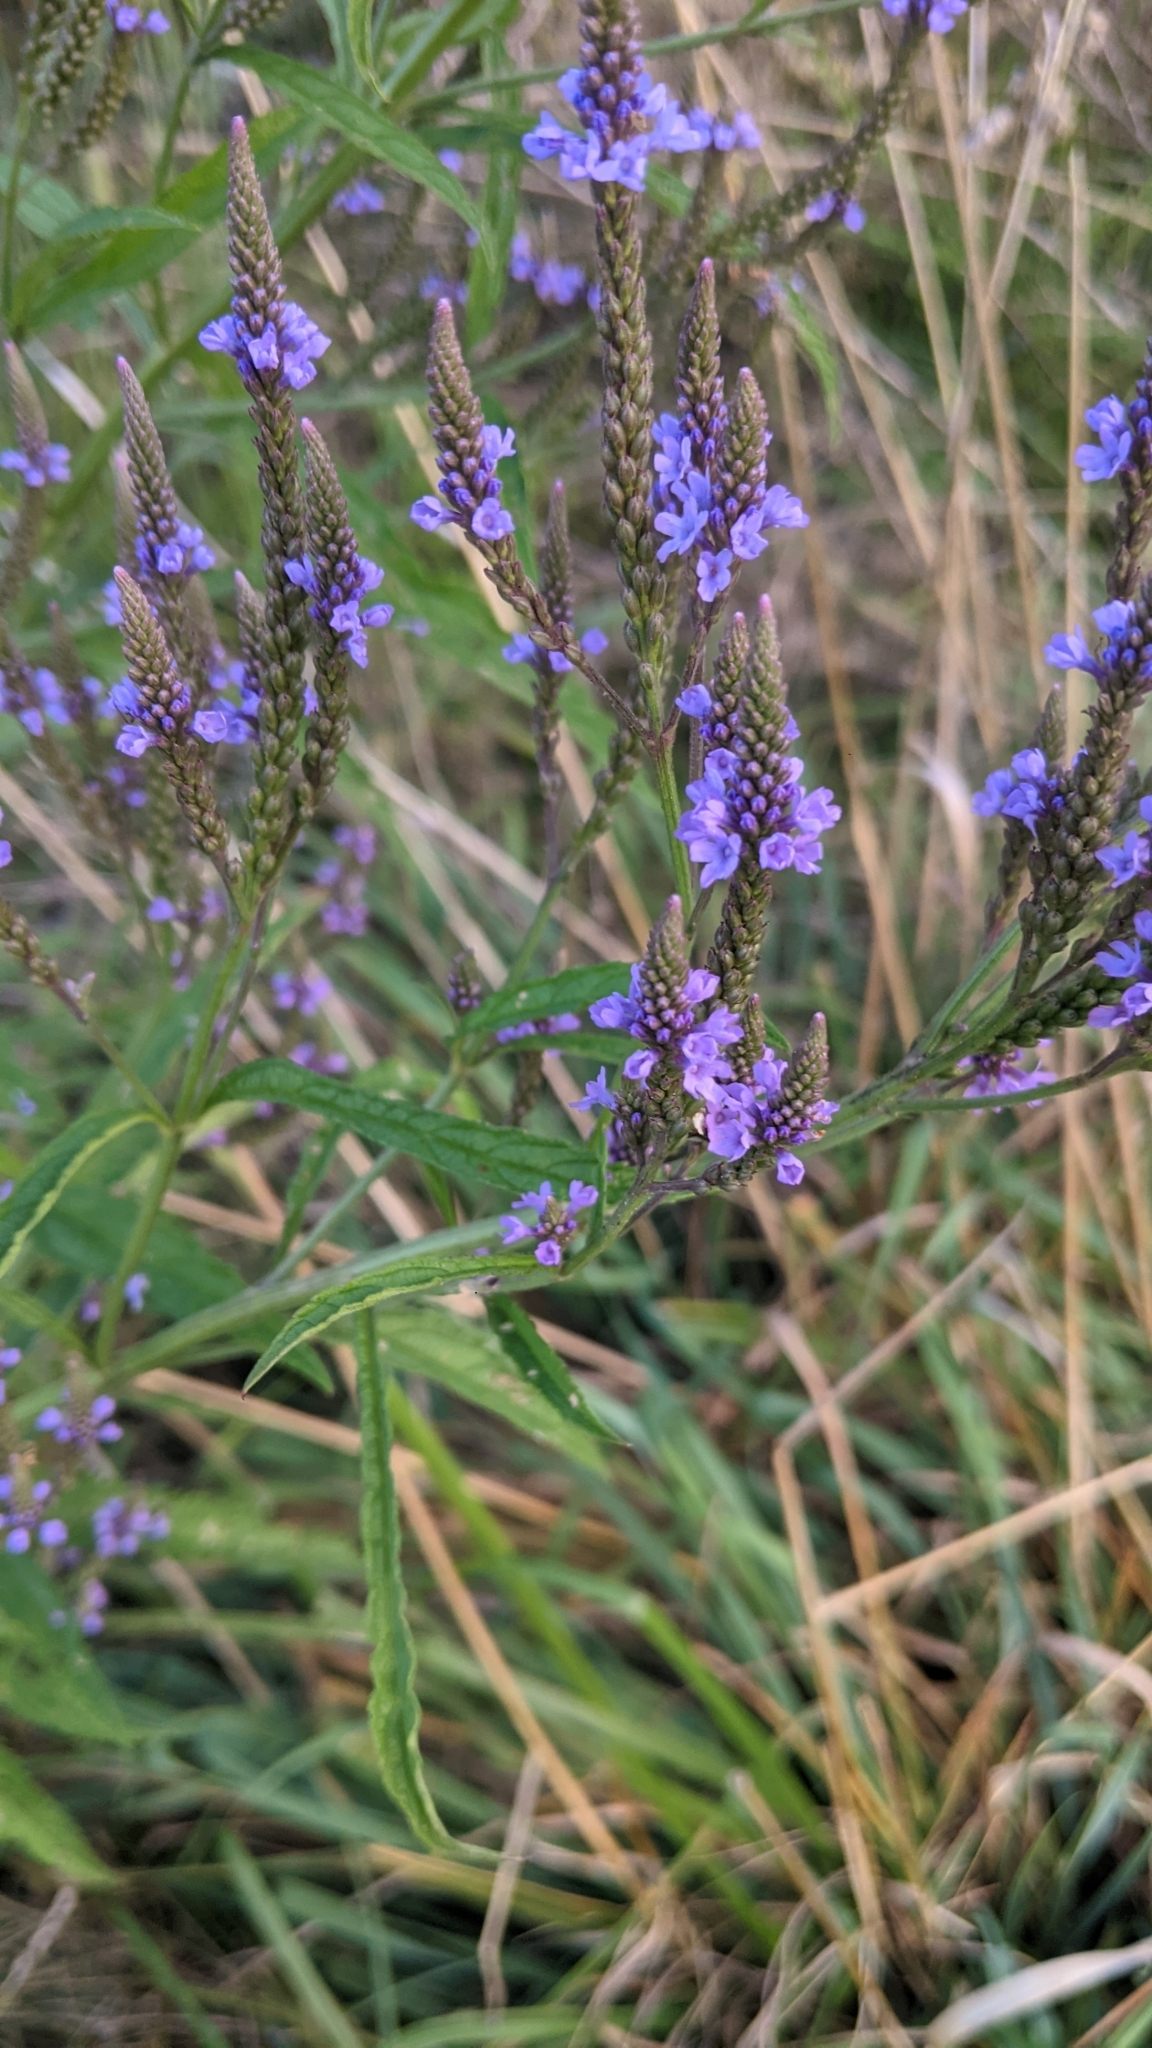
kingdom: Plantae
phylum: Tracheophyta
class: Magnoliopsida
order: Lamiales
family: Verbenaceae
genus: Verbena
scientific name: Verbena hastata
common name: American blue vervain
